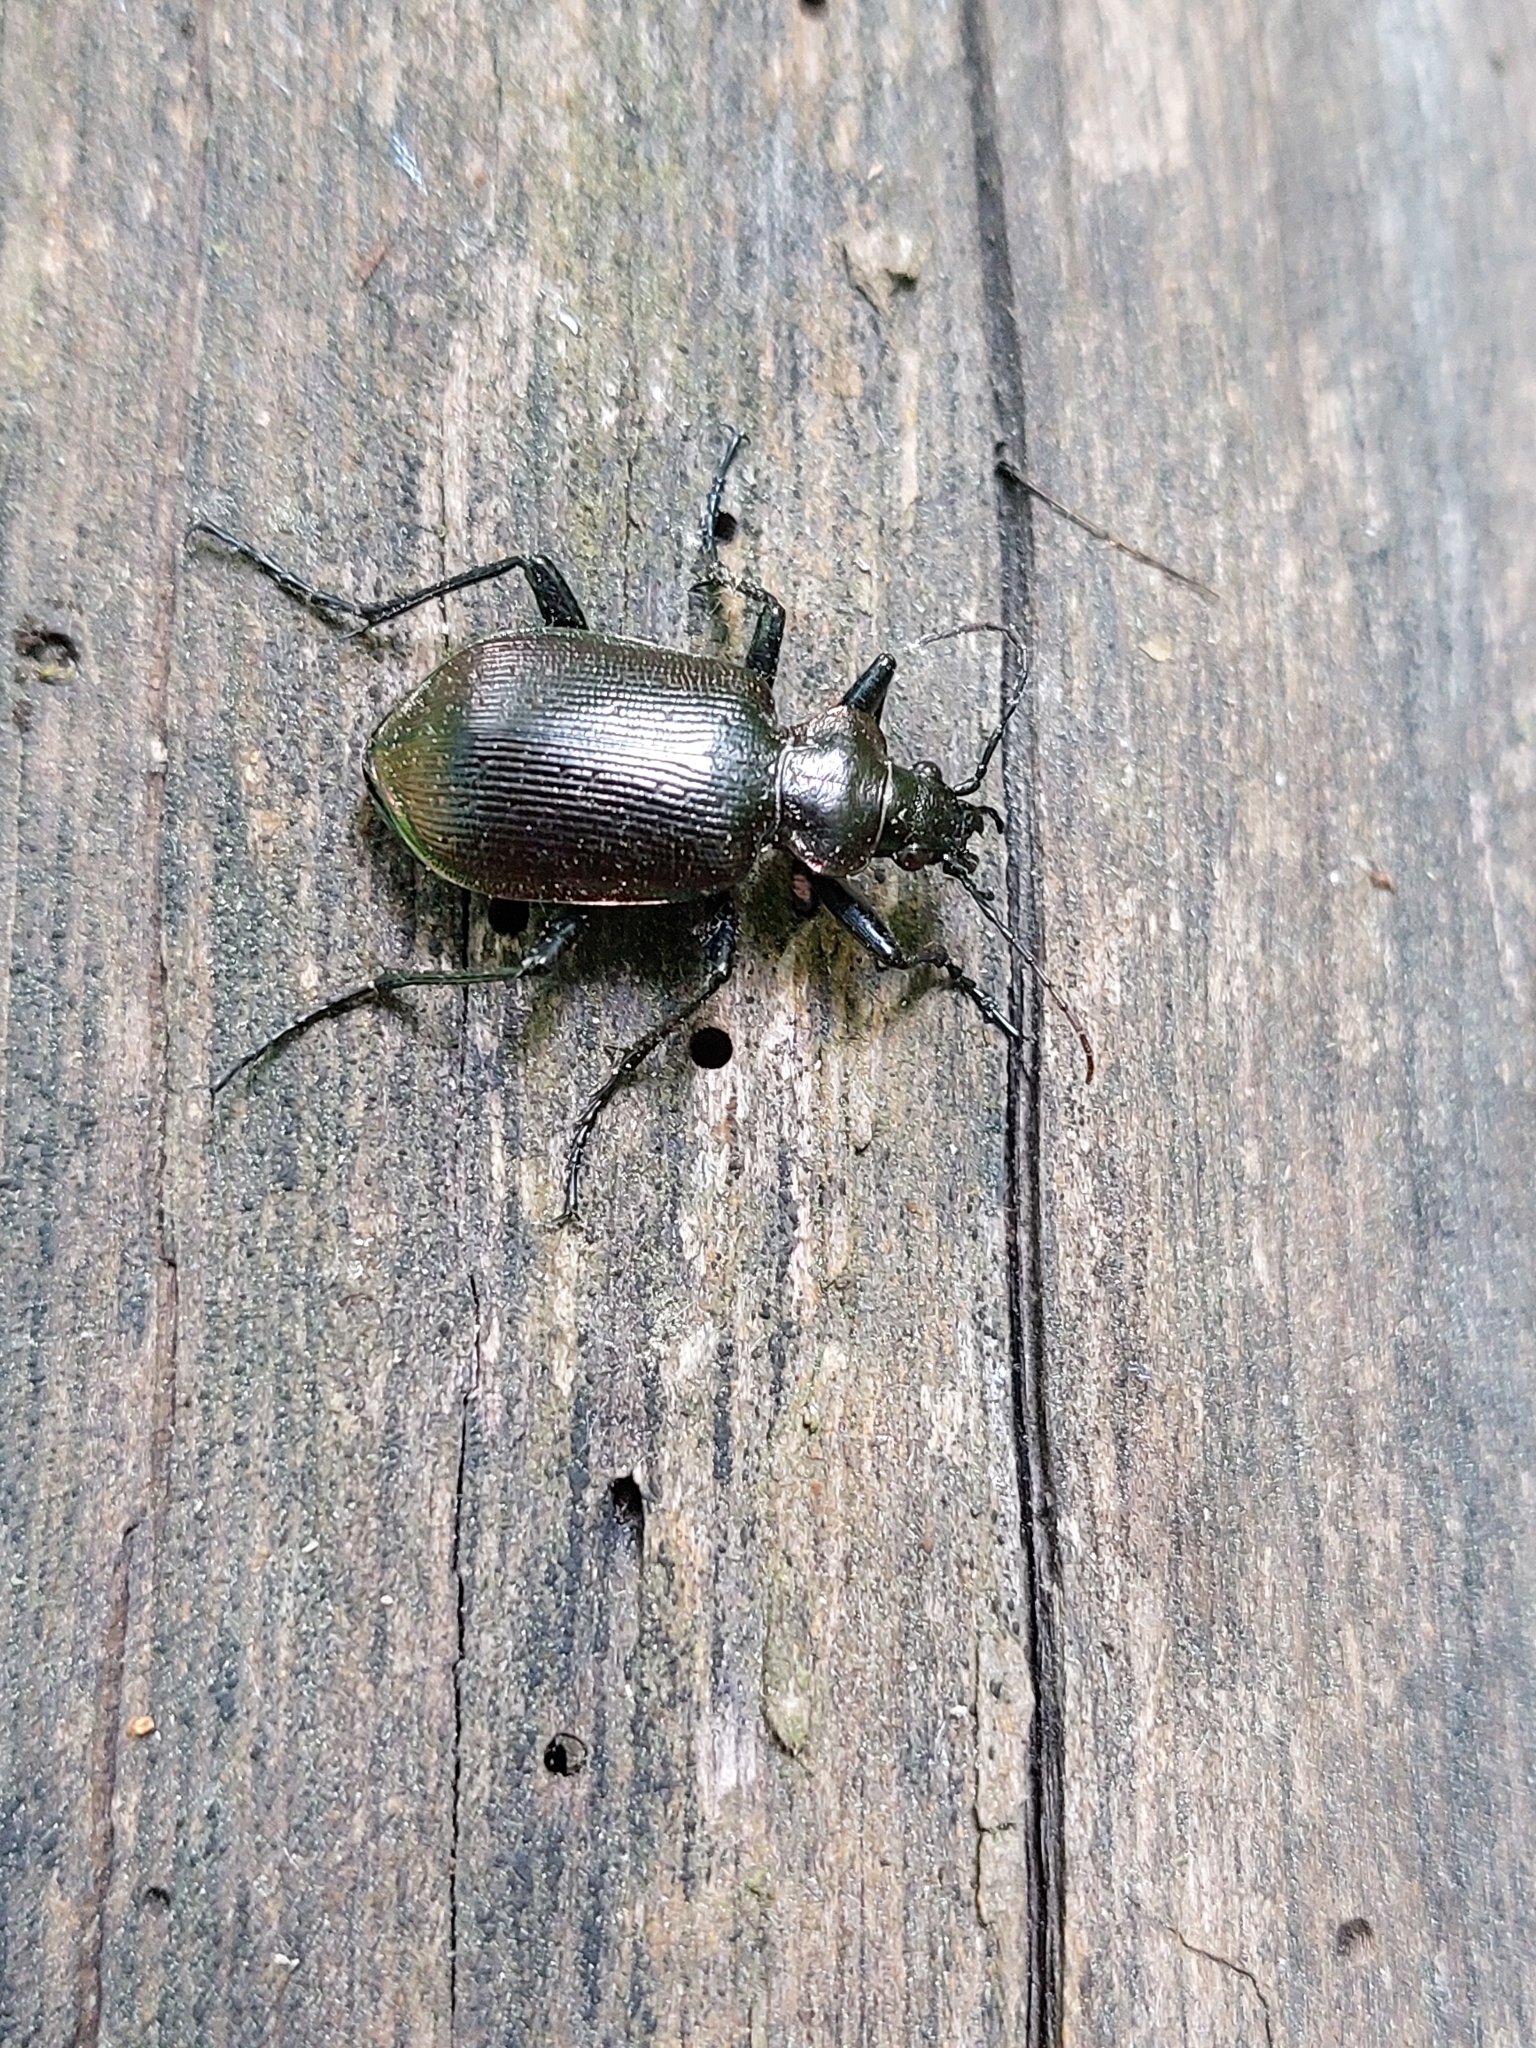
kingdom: Animalia
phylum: Arthropoda
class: Insecta
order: Coleoptera
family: Carabidae
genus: Calosoma
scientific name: Calosoma inquisitor
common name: Caterpillar-hunter
